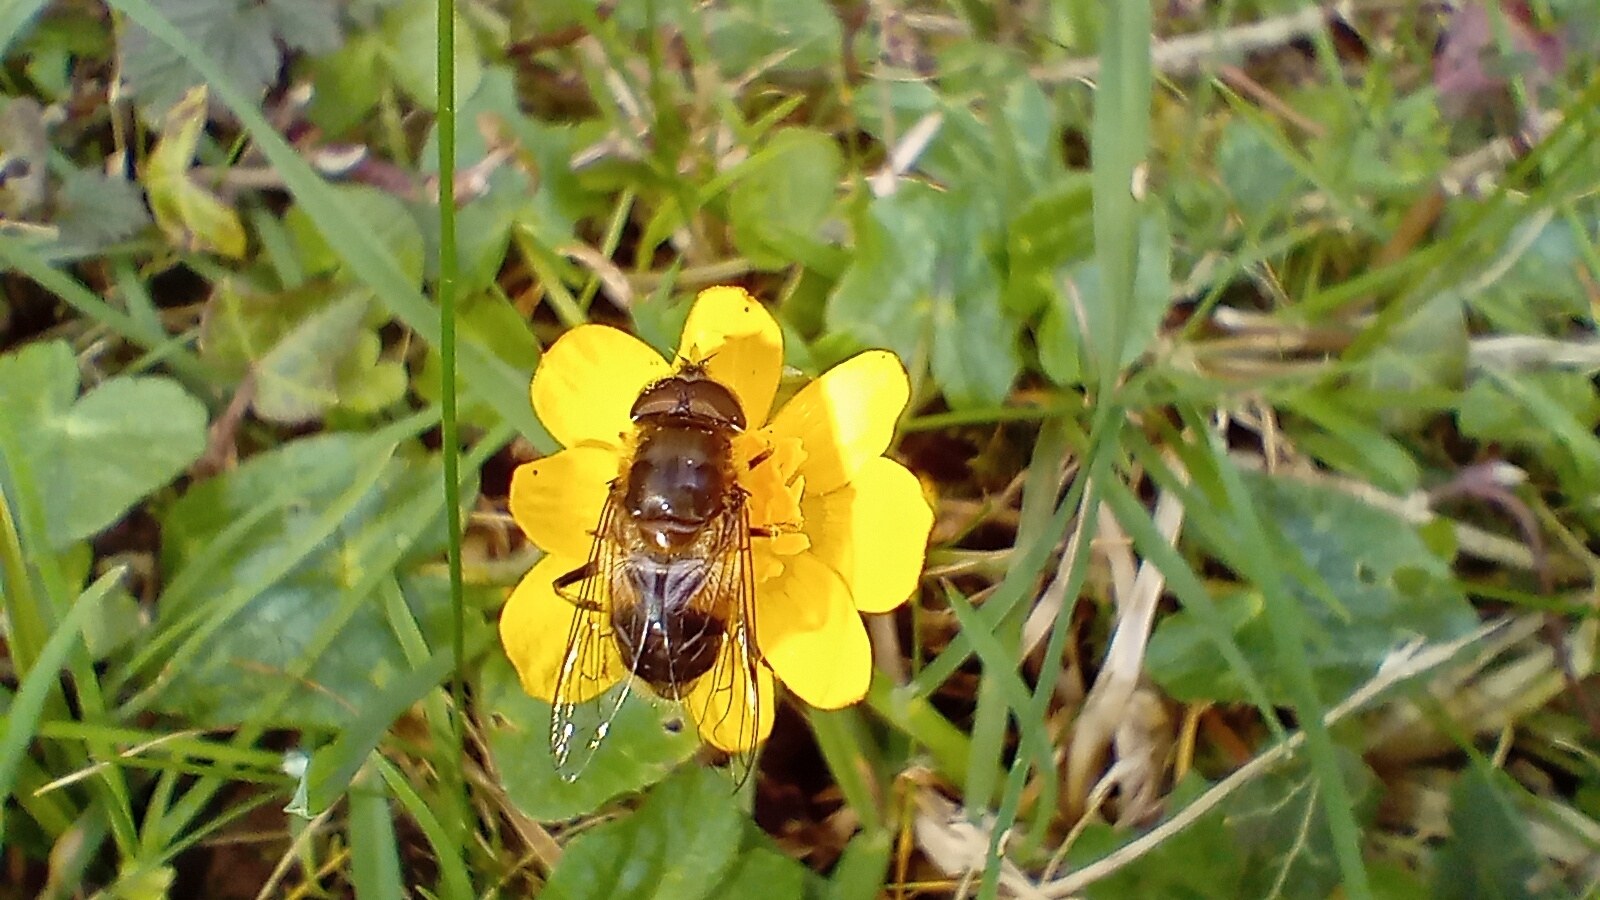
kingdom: Animalia
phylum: Arthropoda
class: Insecta
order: Diptera
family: Syrphidae
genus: Eristalis
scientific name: Eristalis pertinax
